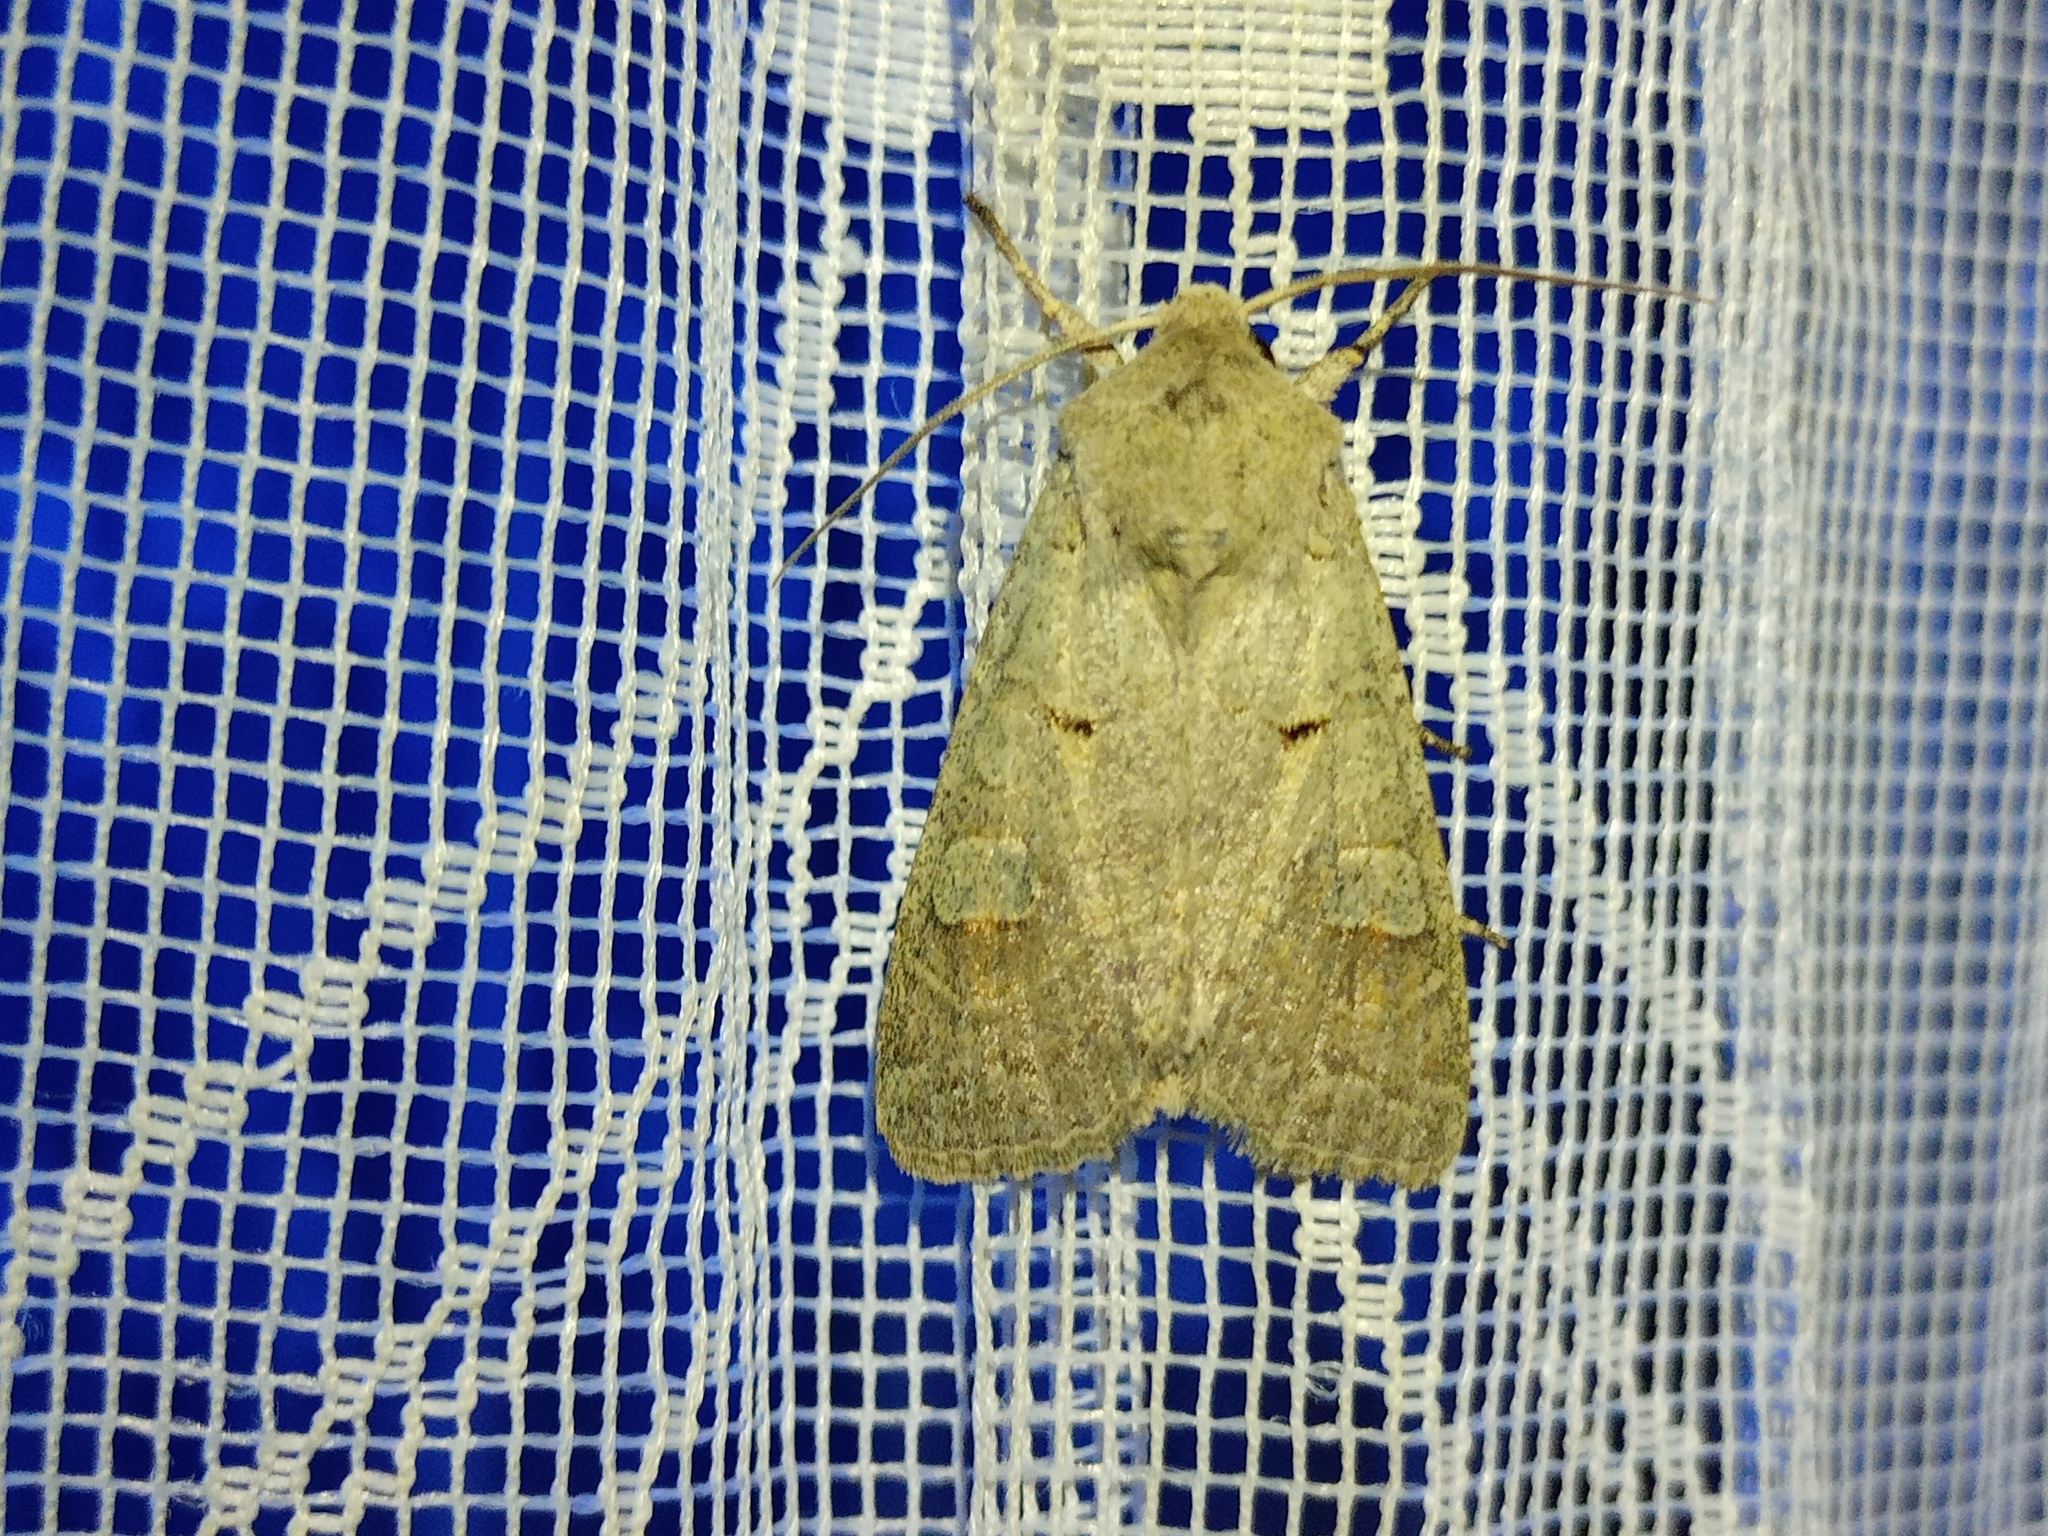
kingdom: Animalia
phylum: Arthropoda
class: Insecta
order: Lepidoptera
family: Noctuidae
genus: Ammoconia
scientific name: Ammoconia caecimacula
